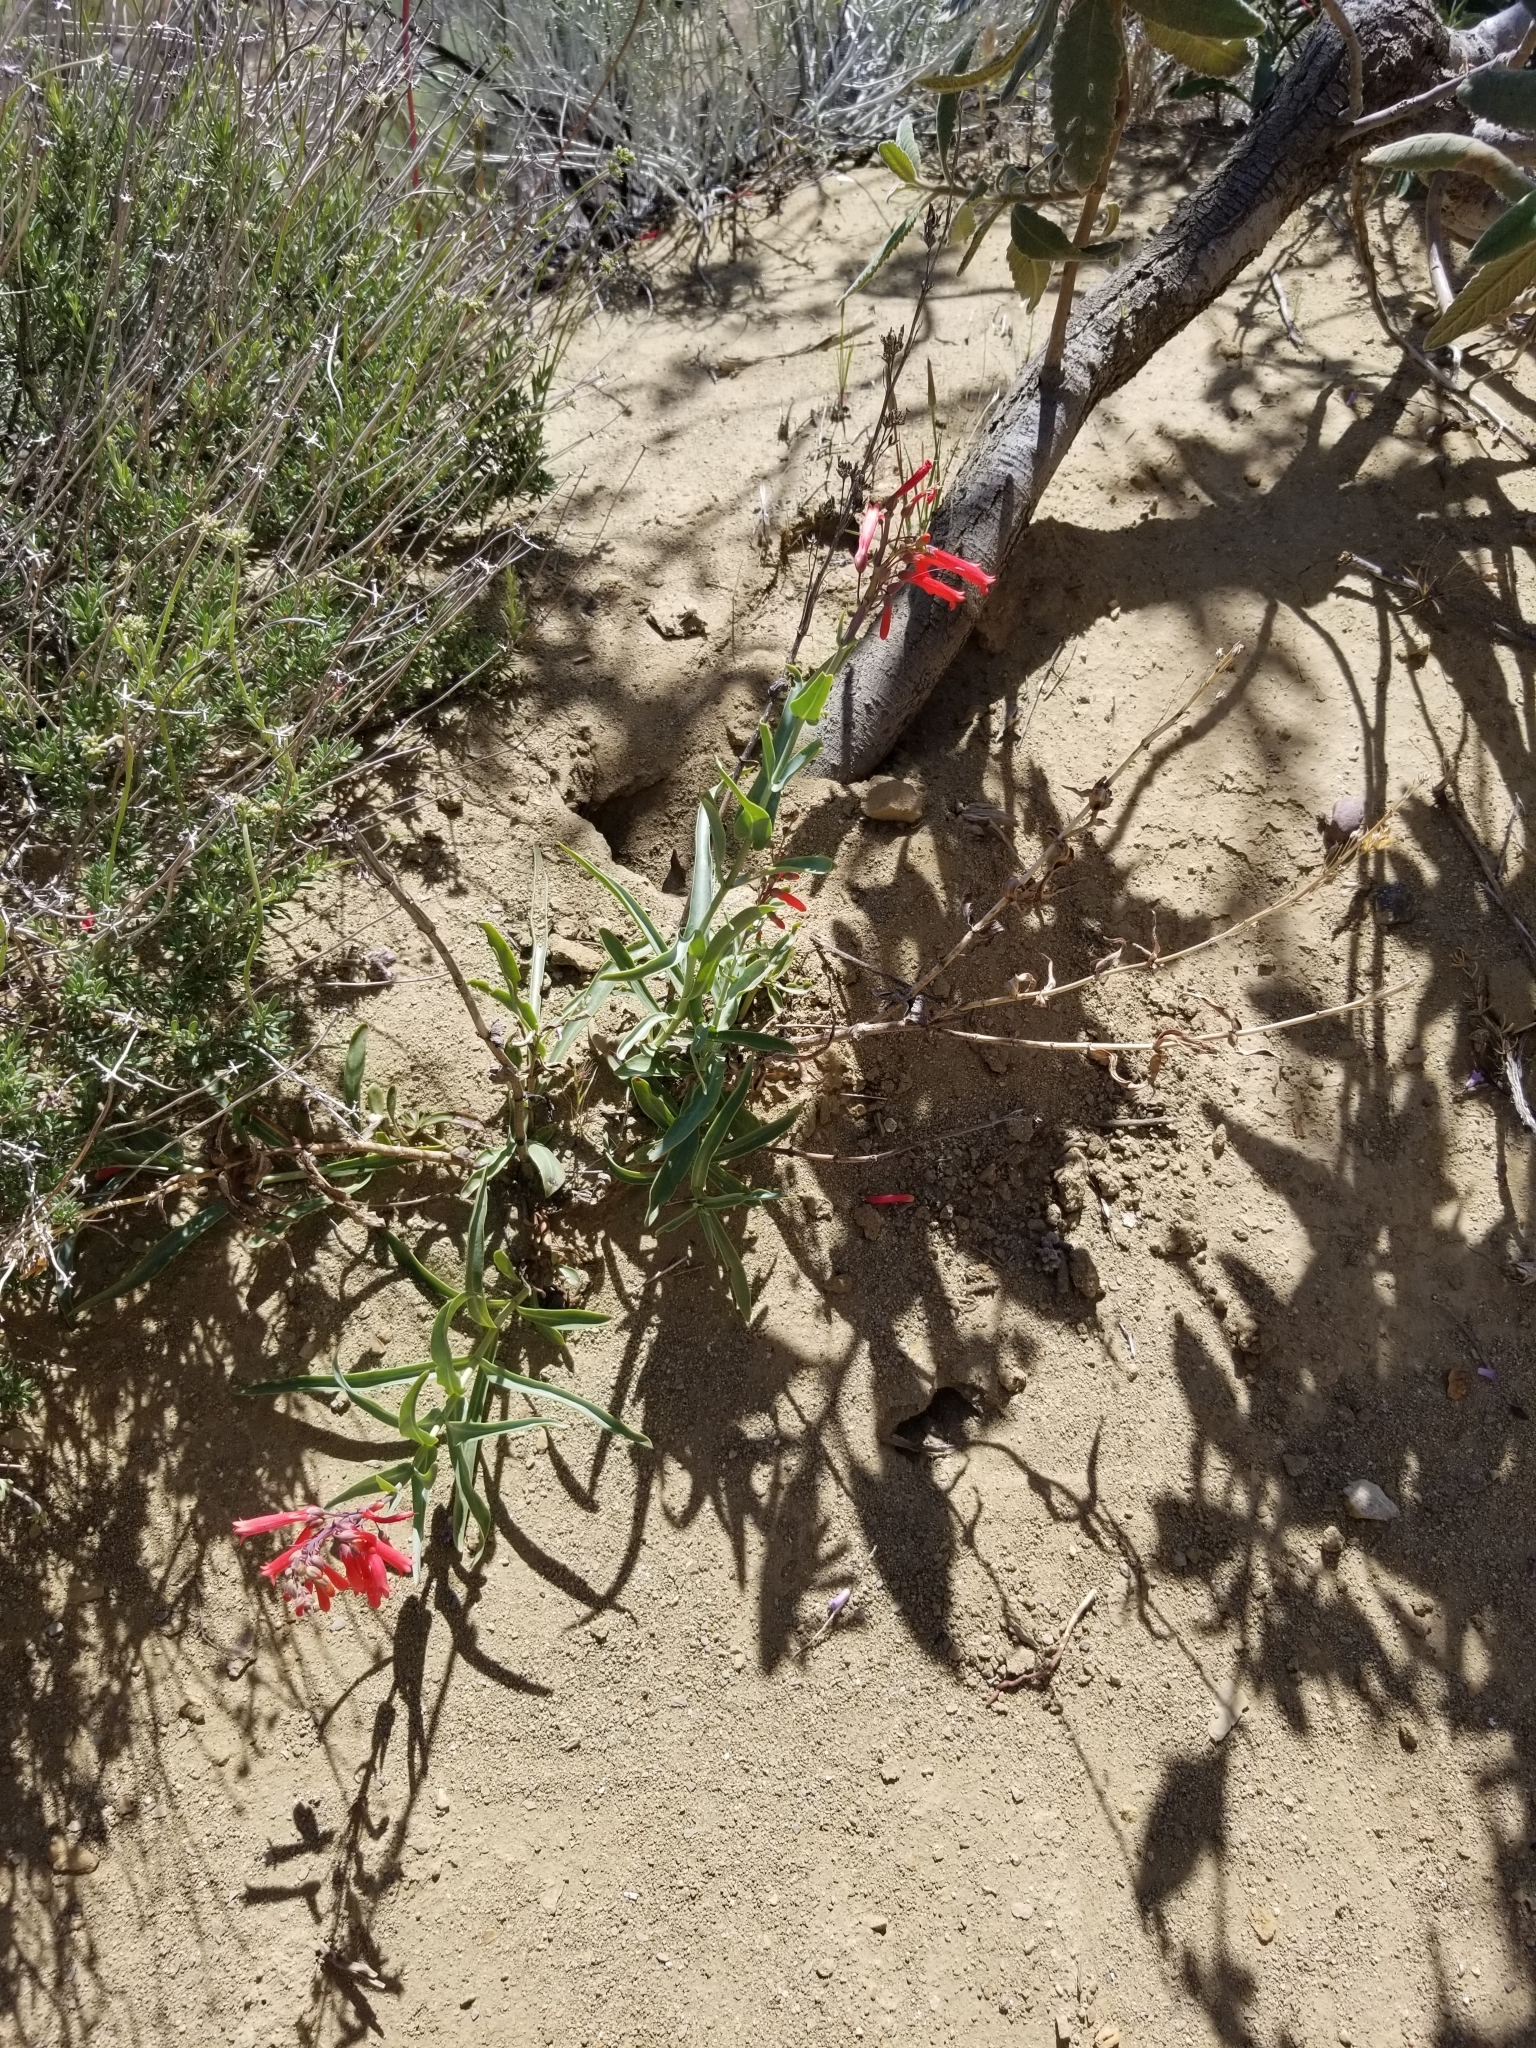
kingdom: Plantae
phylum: Tracheophyta
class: Magnoliopsida
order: Lamiales
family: Plantaginaceae
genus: Penstemon
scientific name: Penstemon centranthifolius
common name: Scarlet bugler
